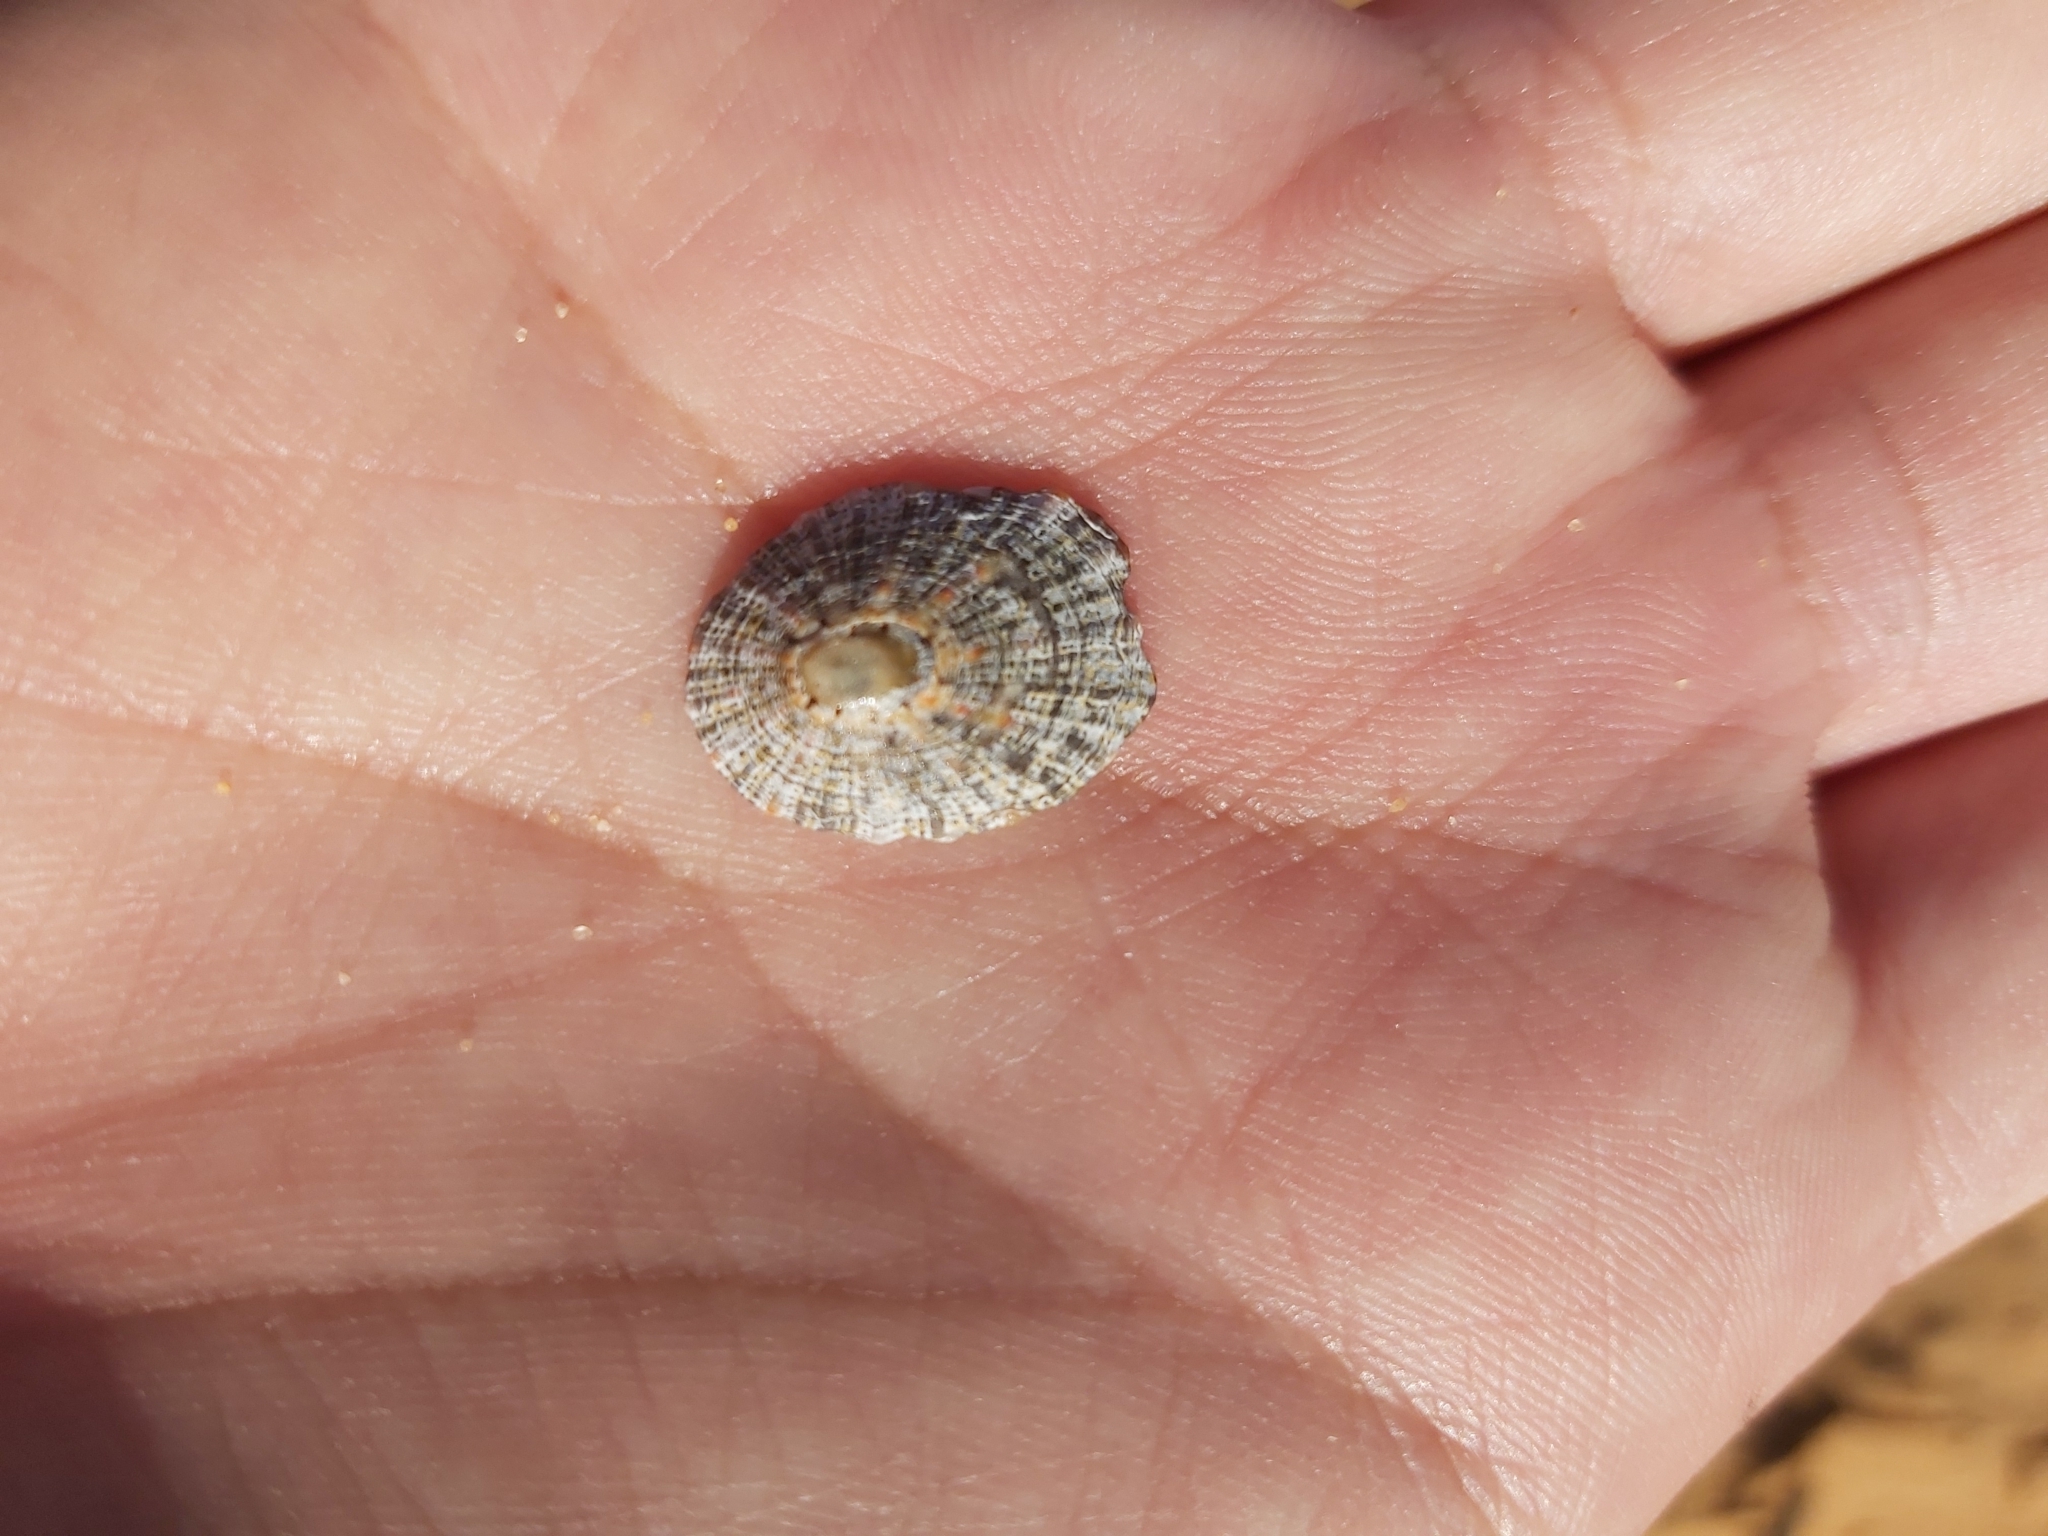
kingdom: Animalia
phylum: Mollusca
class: Gastropoda
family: Nacellidae
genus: Cellana
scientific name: Cellana tramoserica
